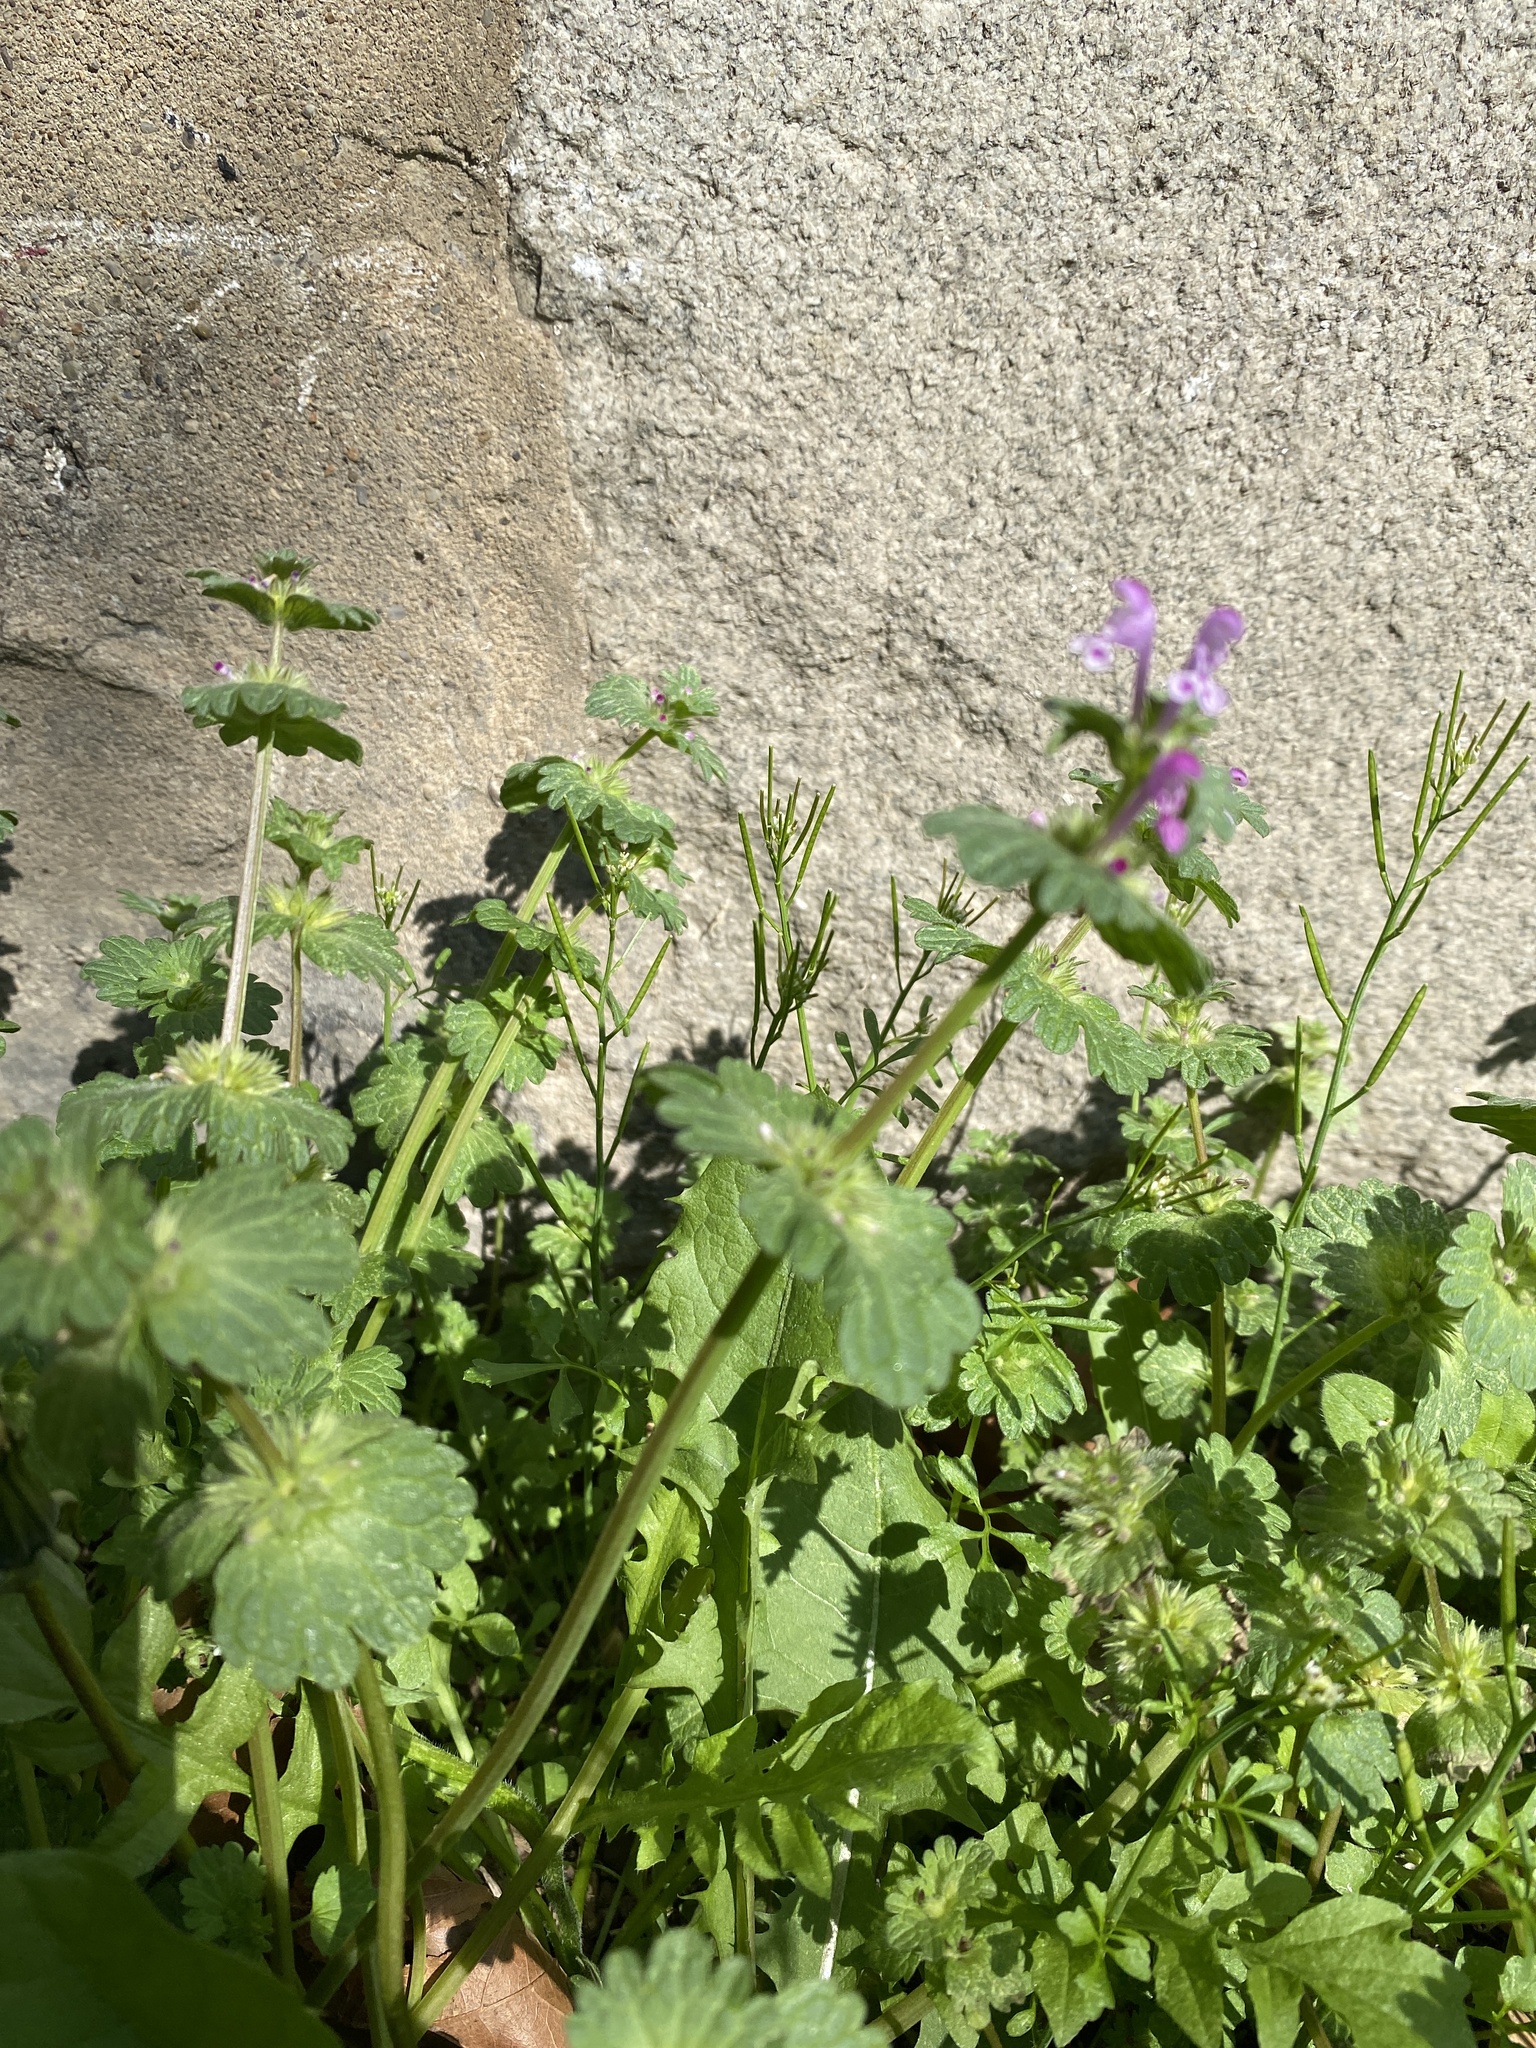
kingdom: Plantae
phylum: Tracheophyta
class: Magnoliopsida
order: Lamiales
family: Lamiaceae
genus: Lamium
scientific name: Lamium amplexicaule
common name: Henbit dead-nettle
